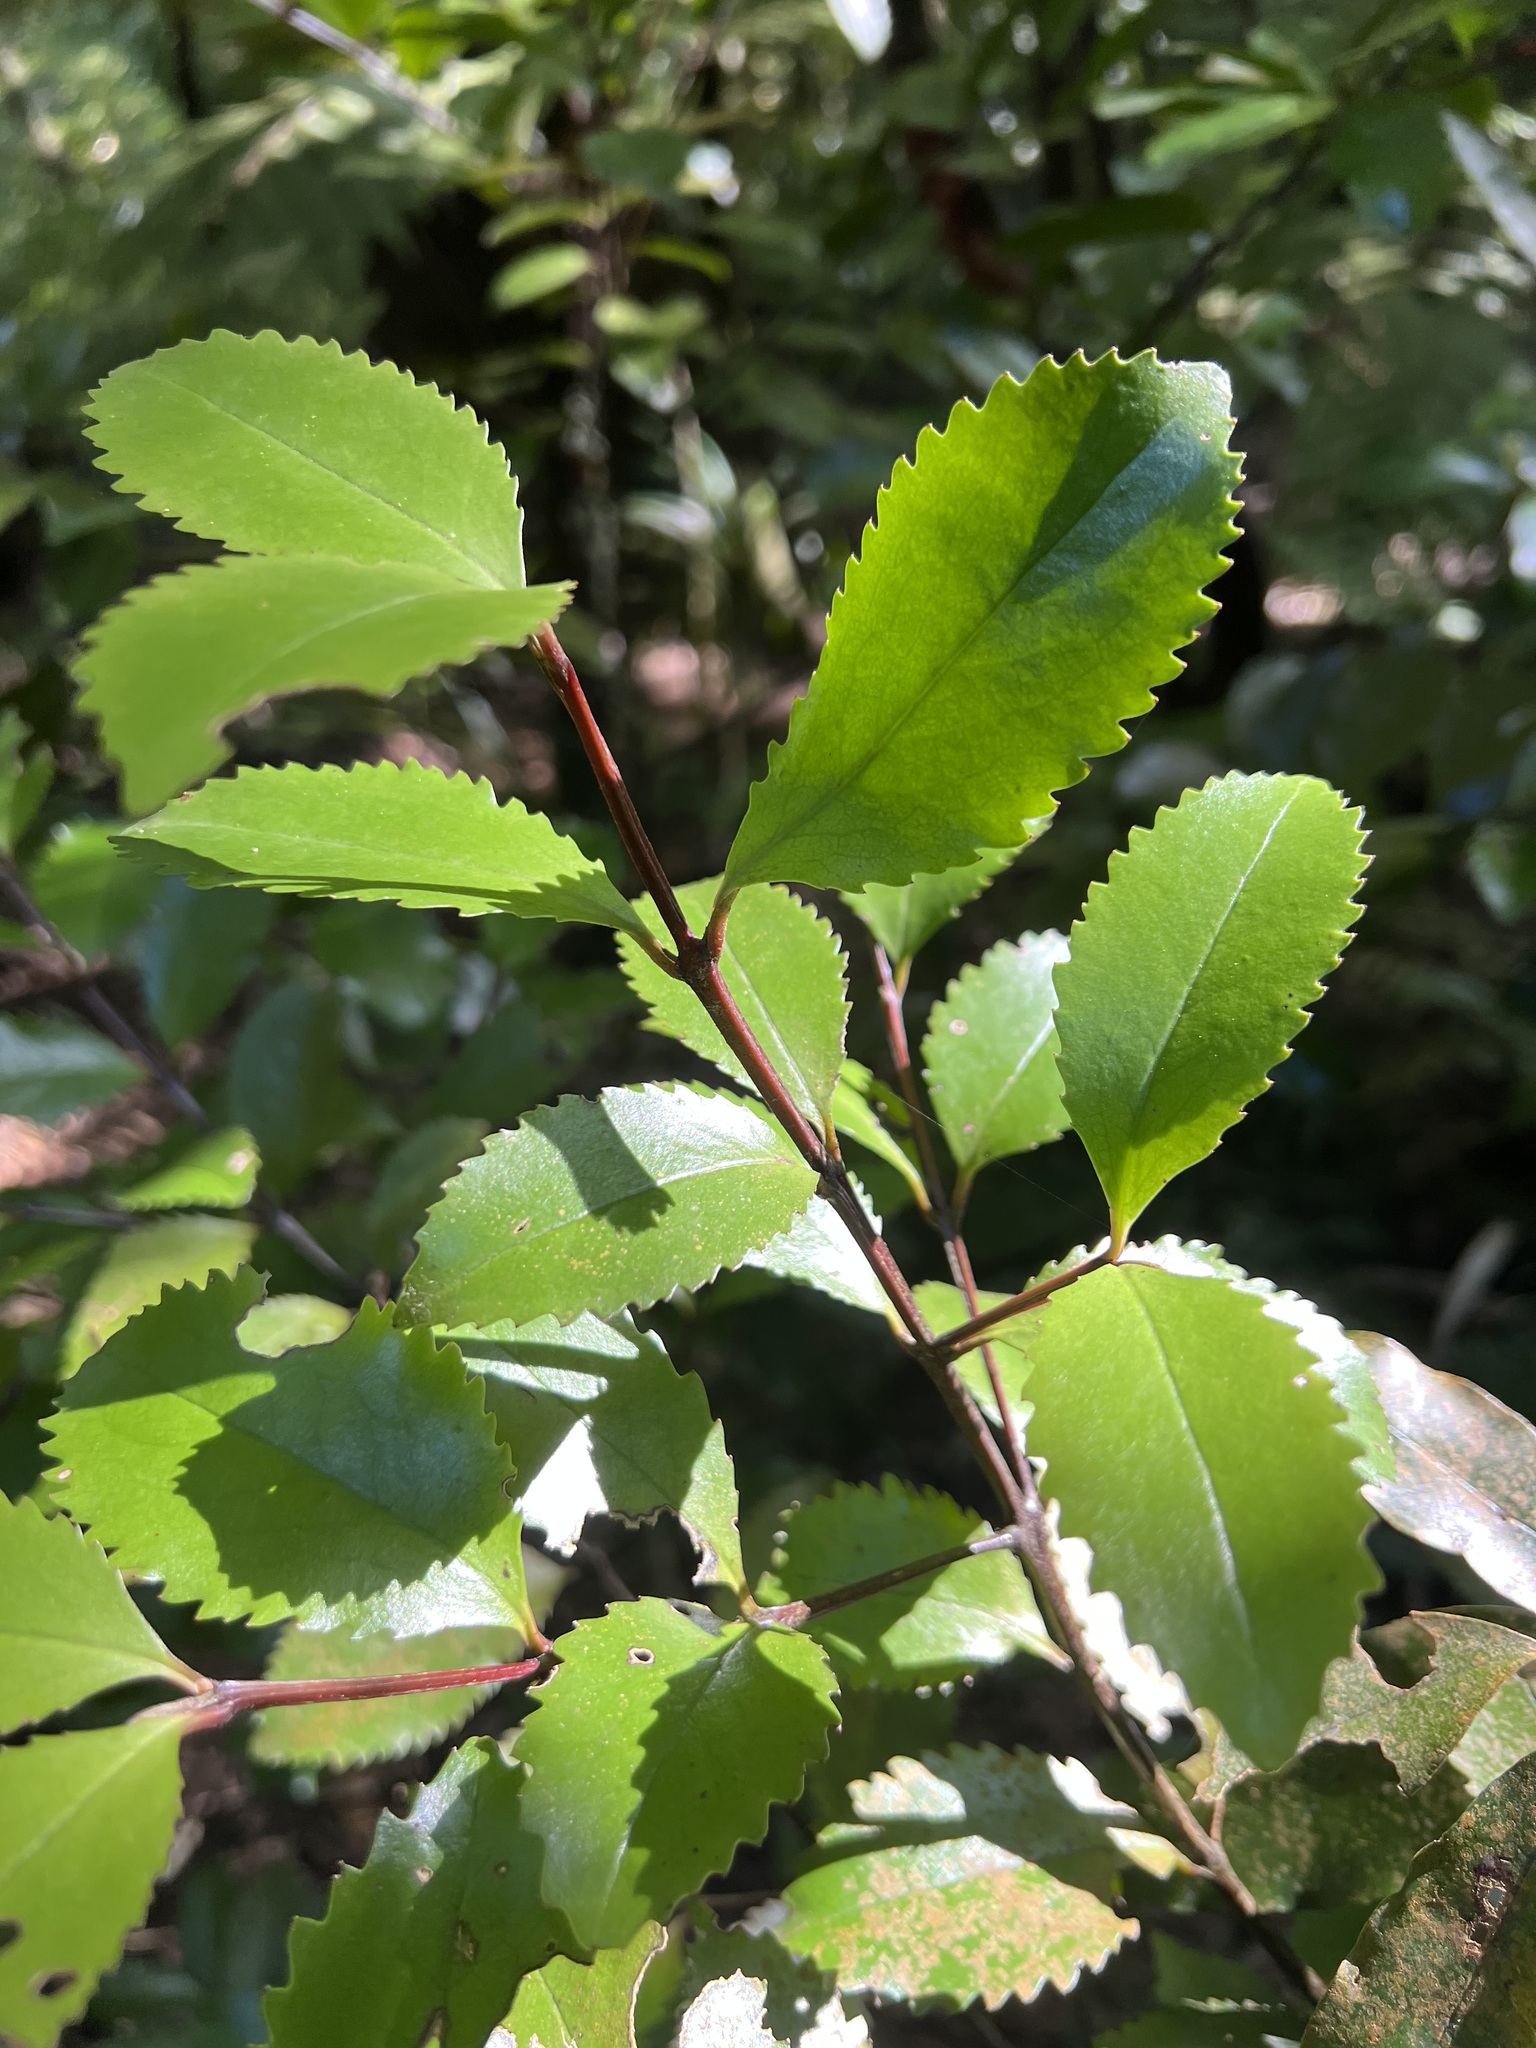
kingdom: Plantae
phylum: Tracheophyta
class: Magnoliopsida
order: Laurales
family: Atherospermataceae
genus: Laurelia
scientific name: Laurelia novae-zelandiae
